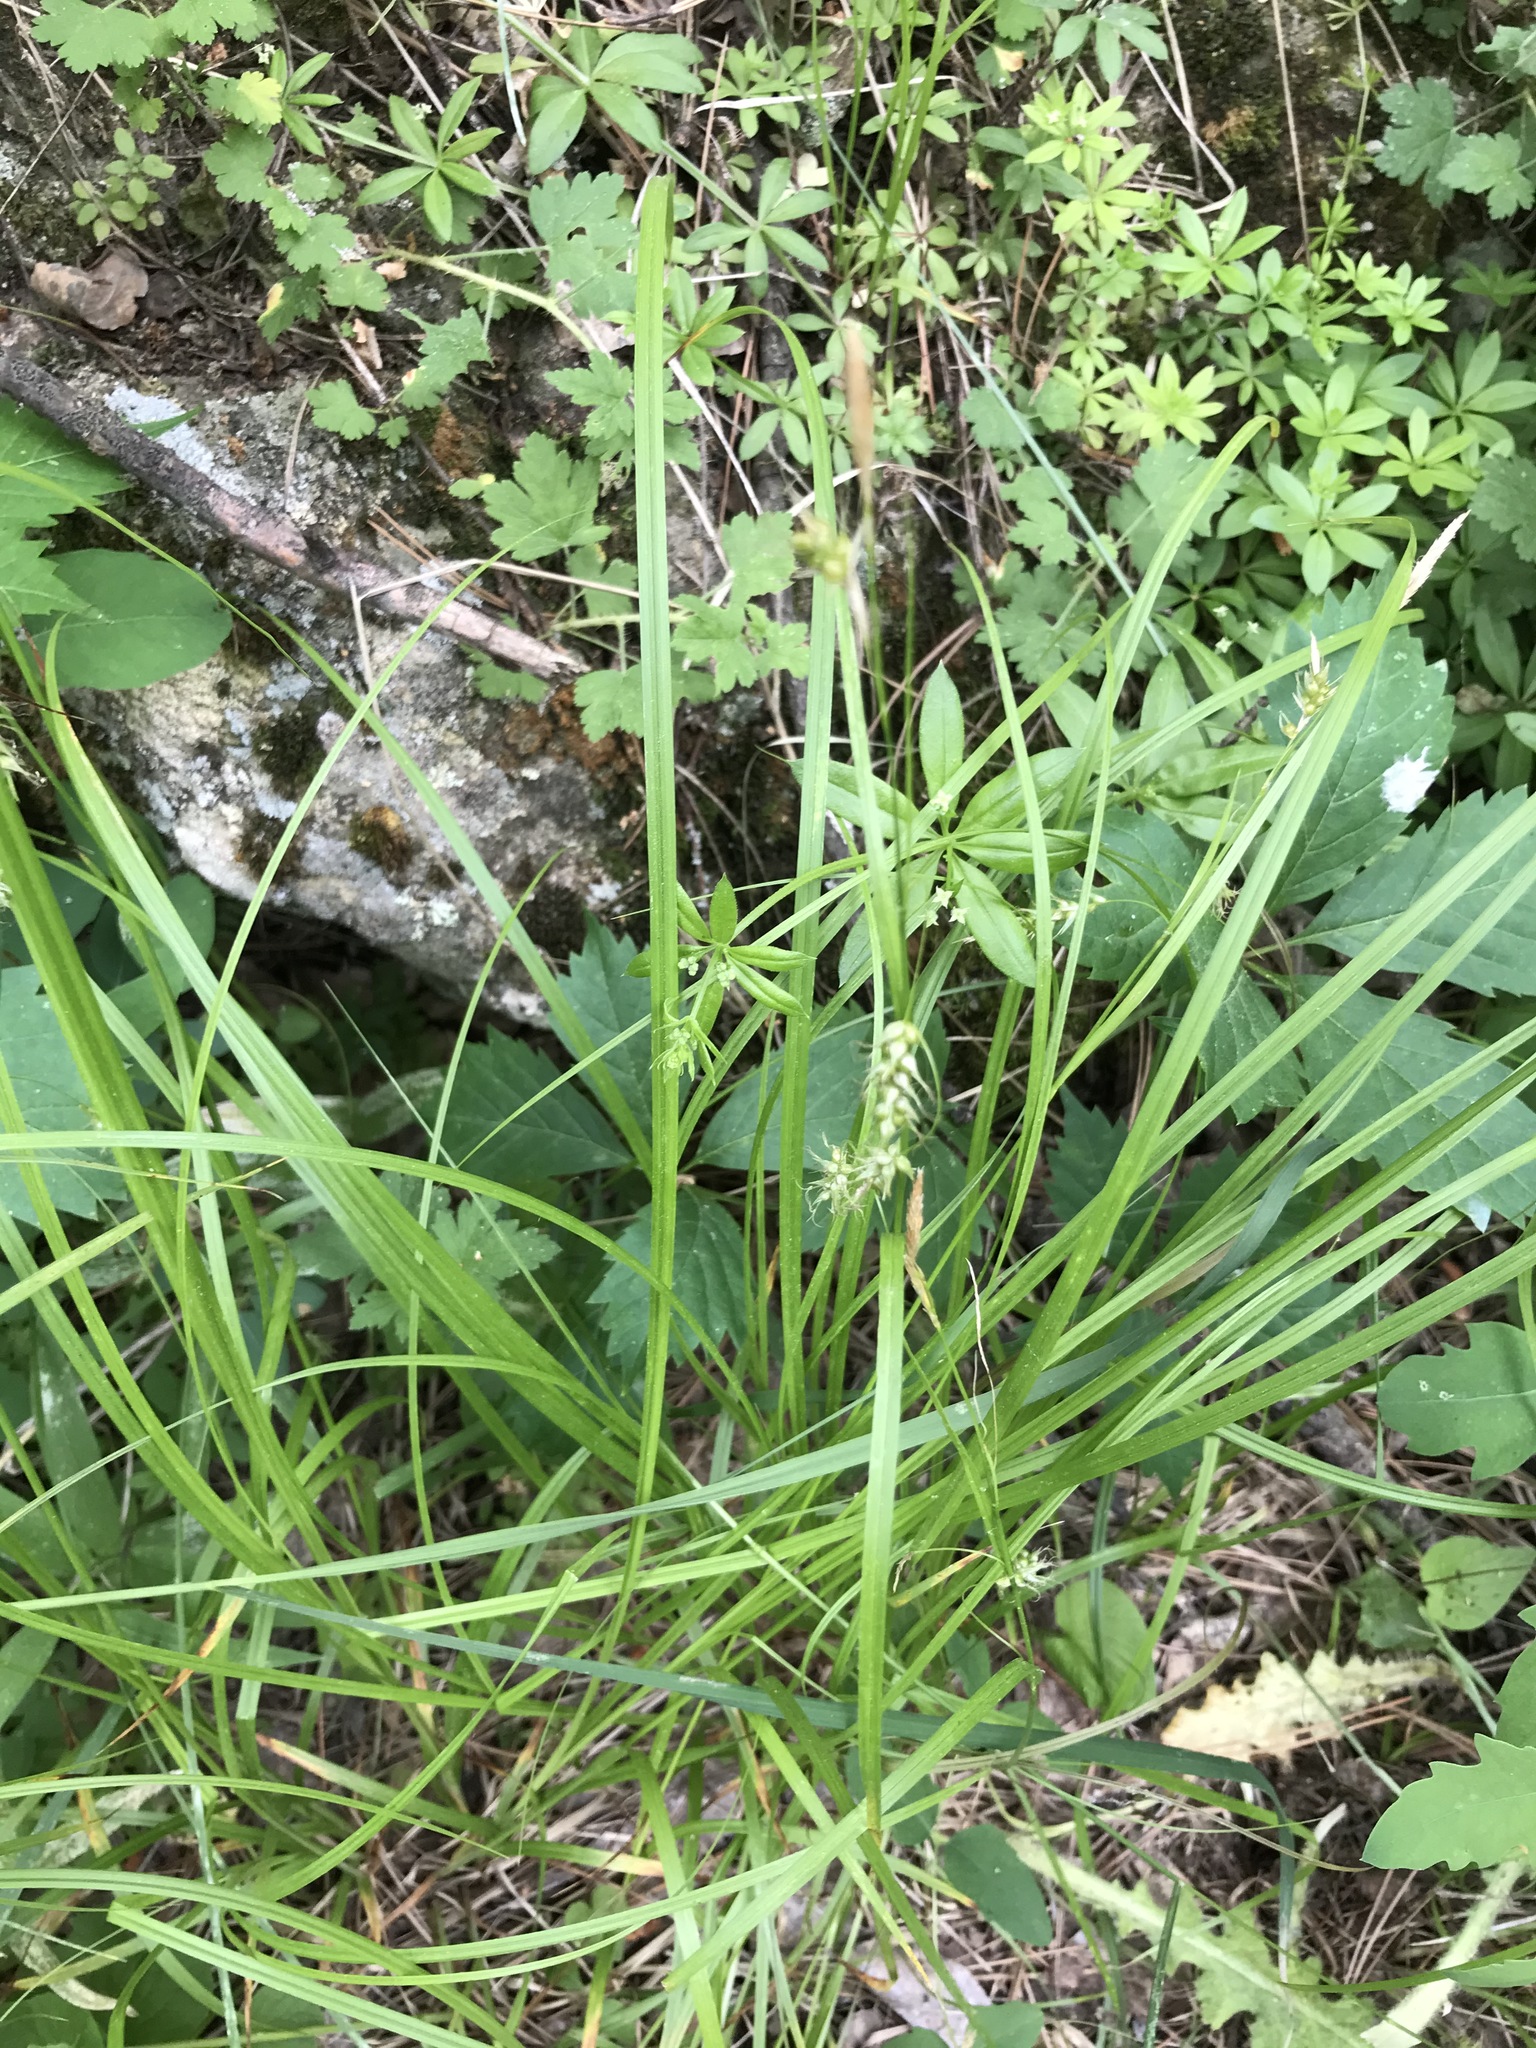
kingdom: Plantae
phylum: Tracheophyta
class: Liliopsida
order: Poales
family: Cyperaceae
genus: Carex
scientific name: Carex sprengelii
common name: Long-beaked sedge
